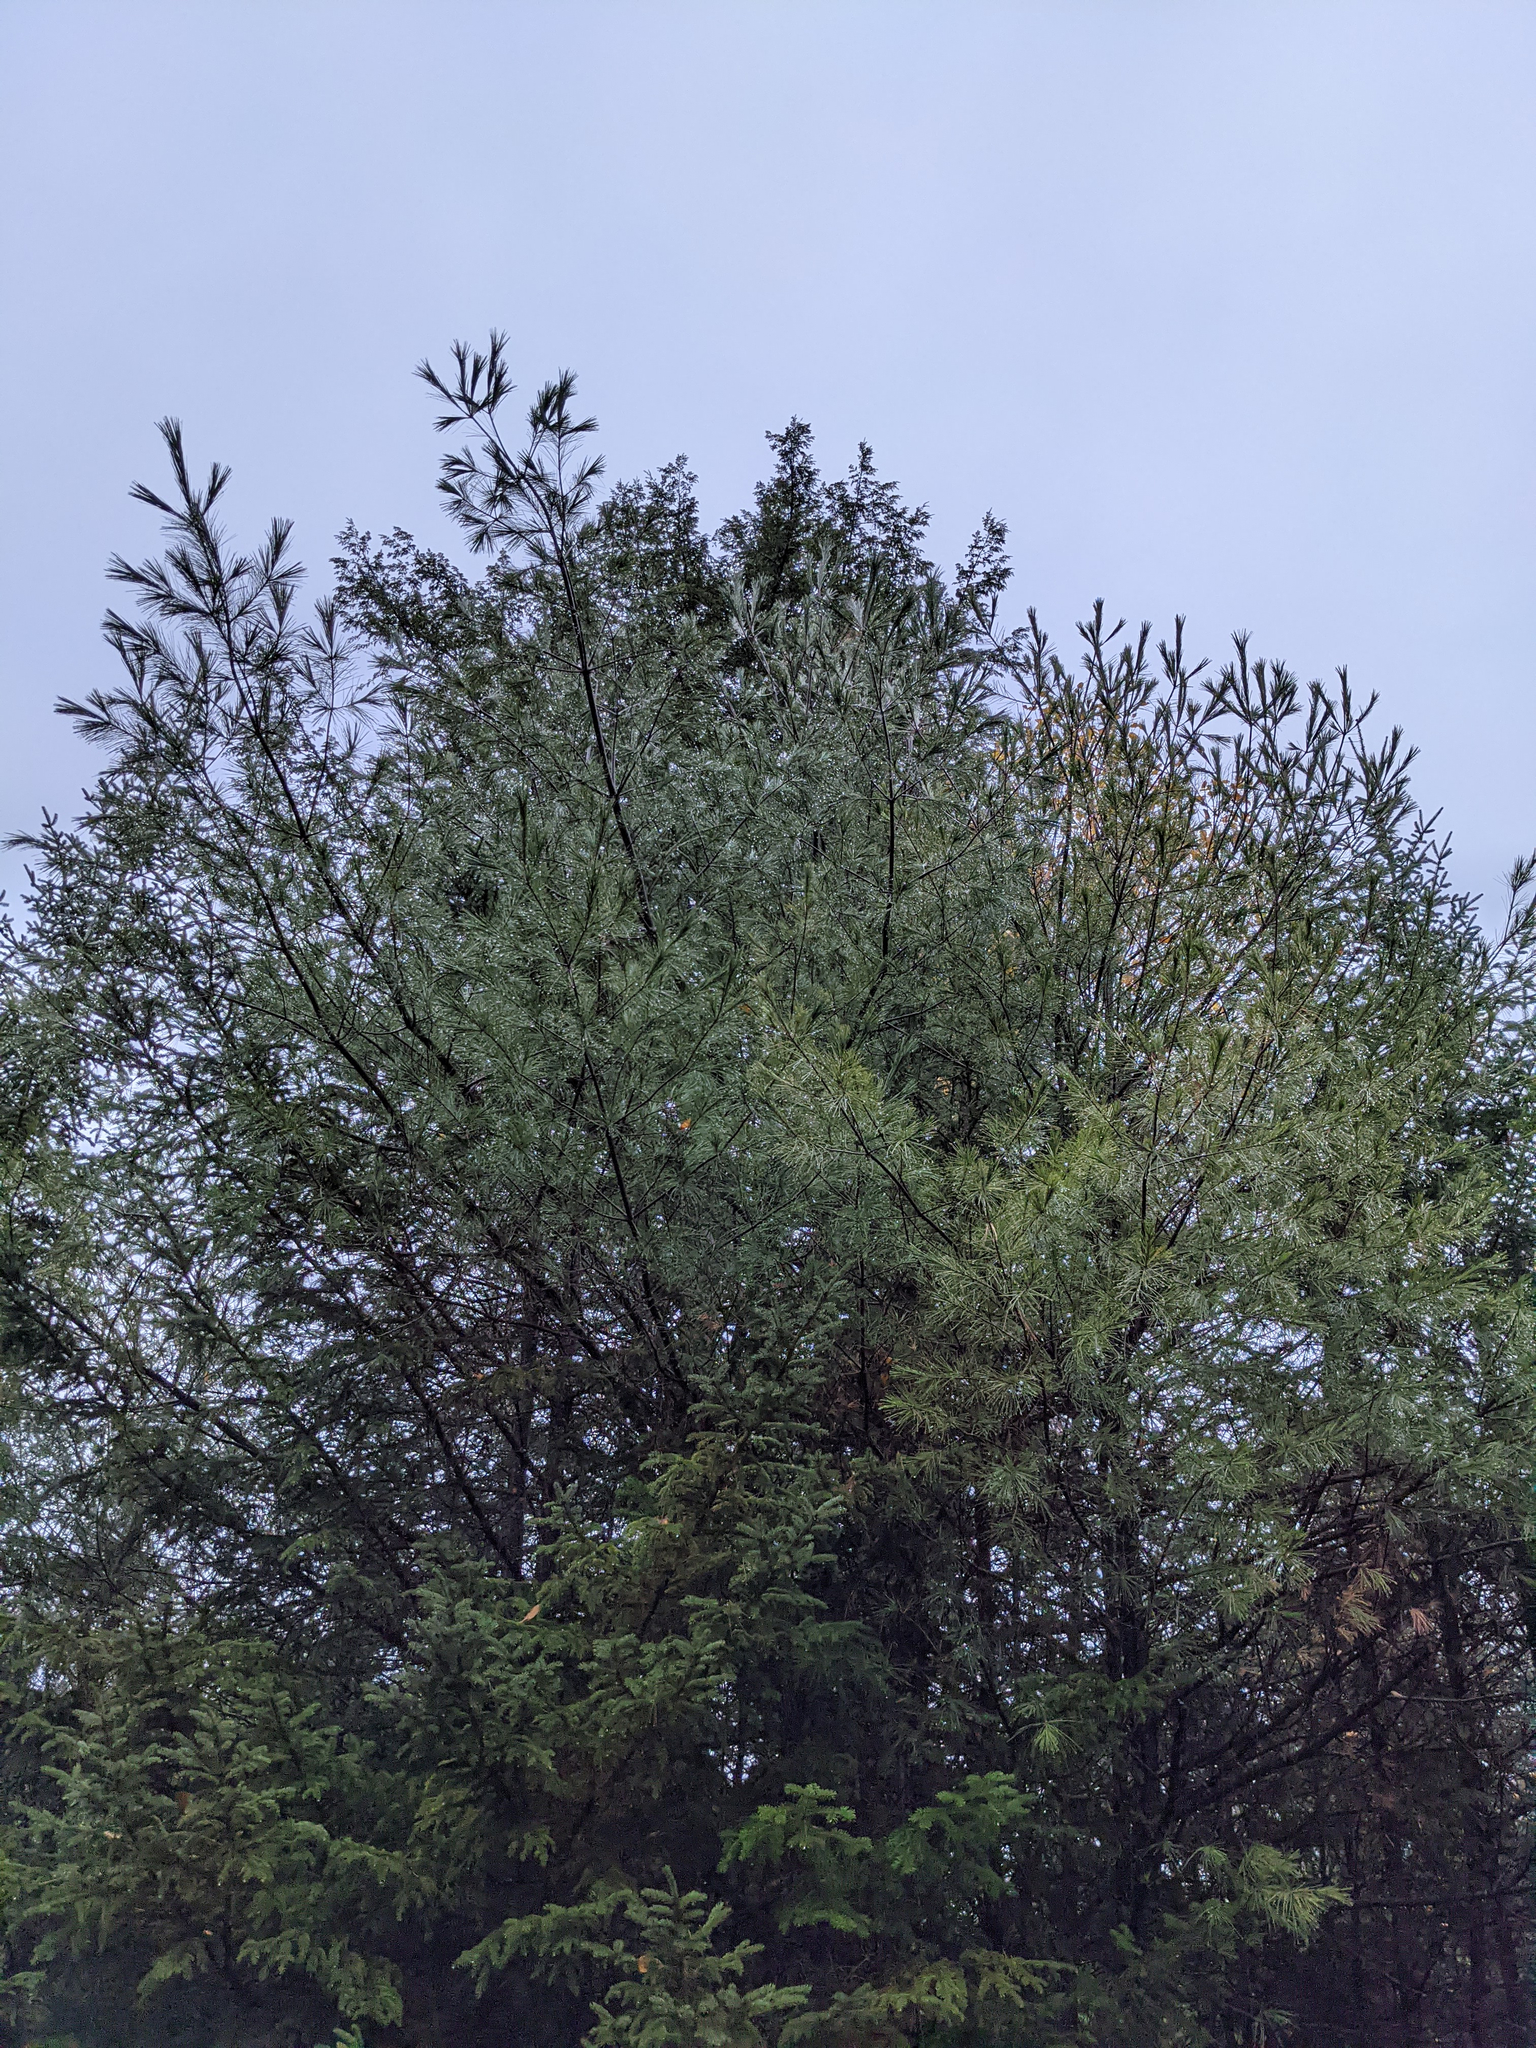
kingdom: Plantae
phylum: Tracheophyta
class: Pinopsida
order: Pinales
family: Pinaceae
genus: Pinus
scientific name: Pinus strobus
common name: Weymouth pine
